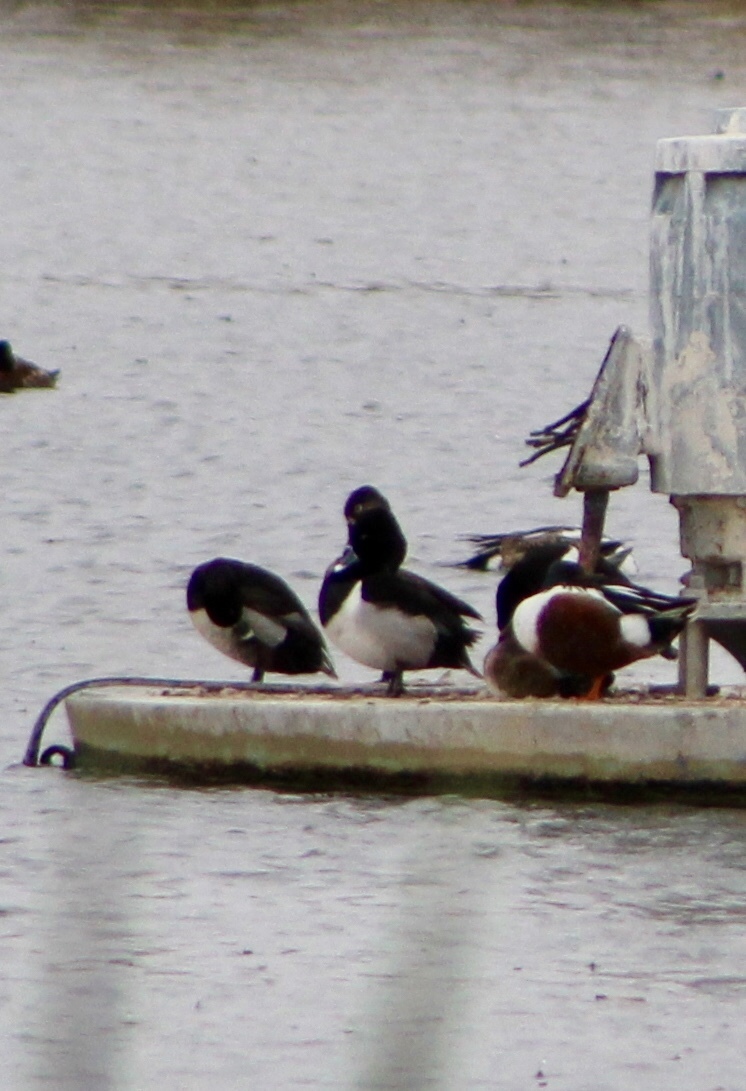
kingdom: Animalia
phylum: Chordata
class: Aves
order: Anseriformes
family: Anatidae
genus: Aythya
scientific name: Aythya collaris
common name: Ring-necked duck
